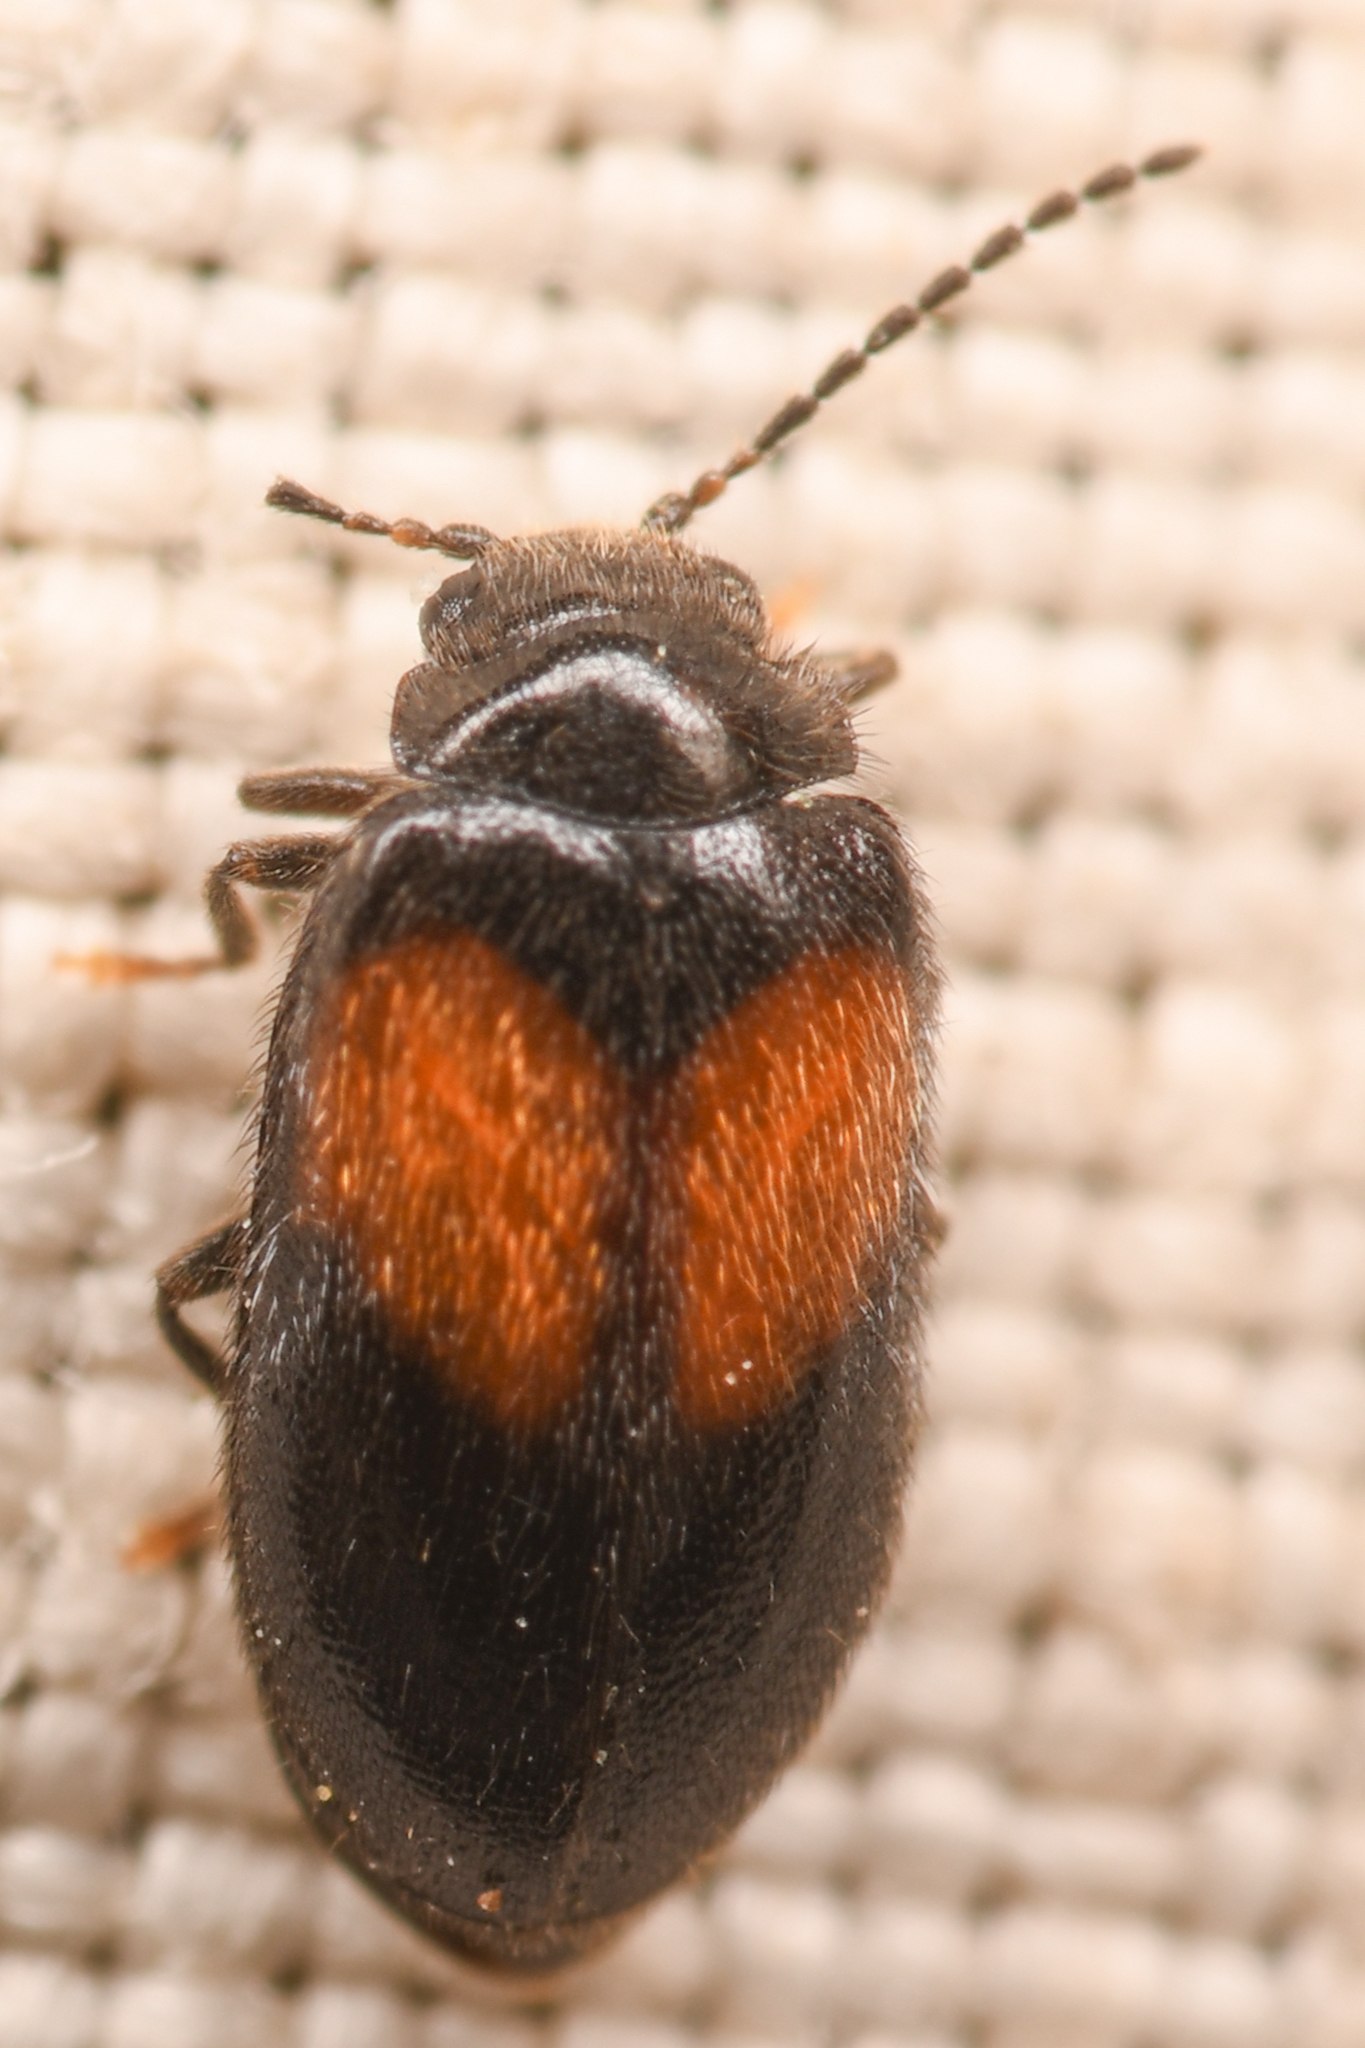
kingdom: Animalia
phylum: Arthropoda
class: Insecta
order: Coleoptera
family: Scirtidae
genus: Cyphon
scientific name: Cyphon concinnus
